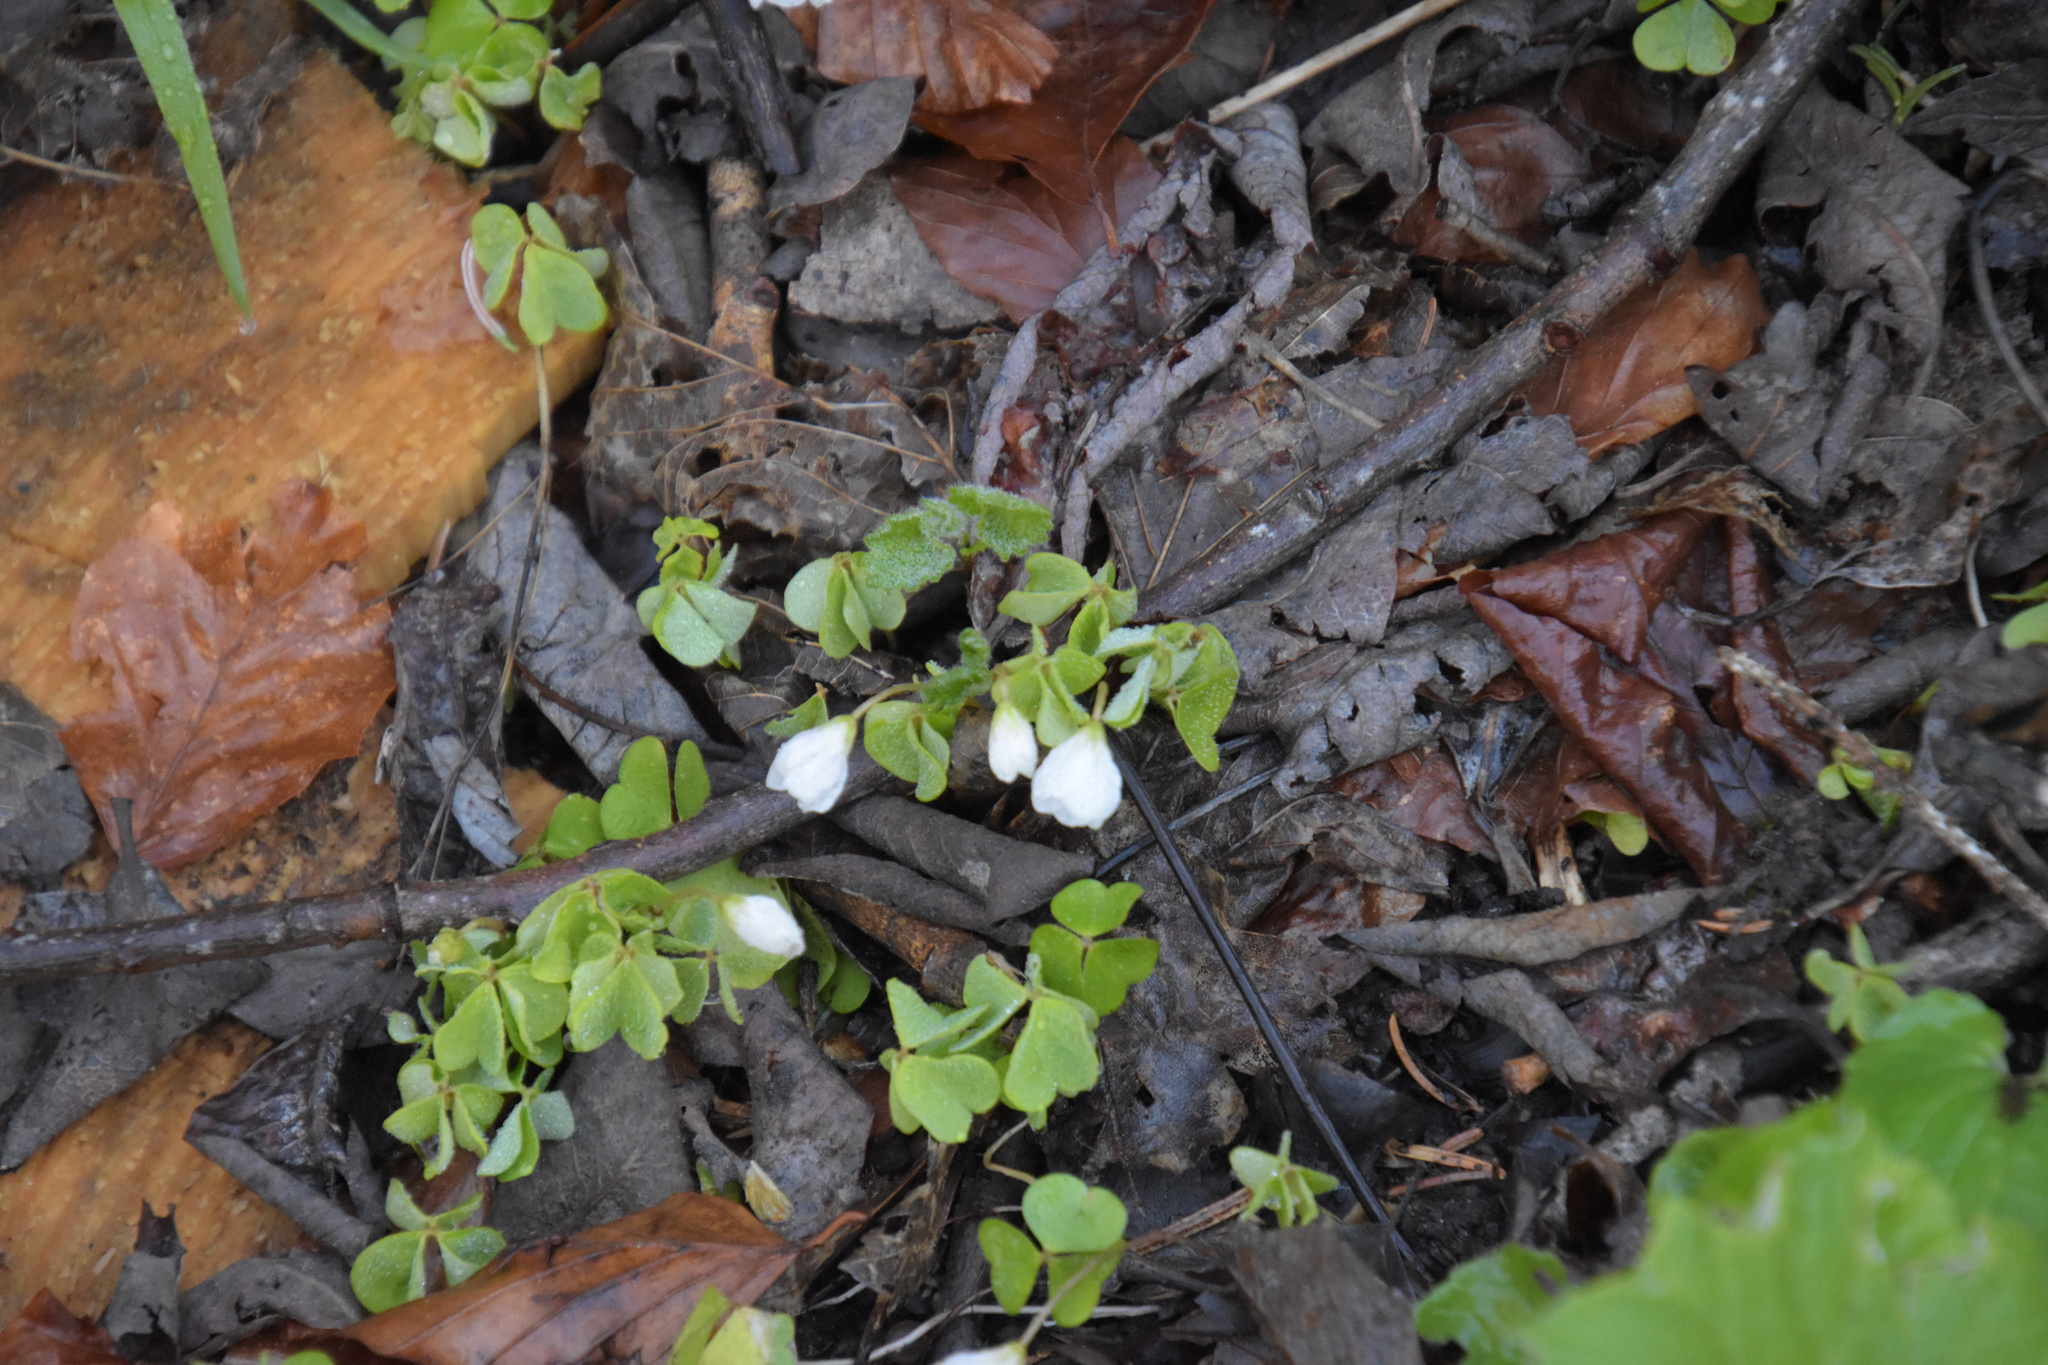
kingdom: Plantae
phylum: Tracheophyta
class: Magnoliopsida
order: Oxalidales
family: Oxalidaceae
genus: Oxalis
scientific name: Oxalis acetosella
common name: Wood-sorrel
